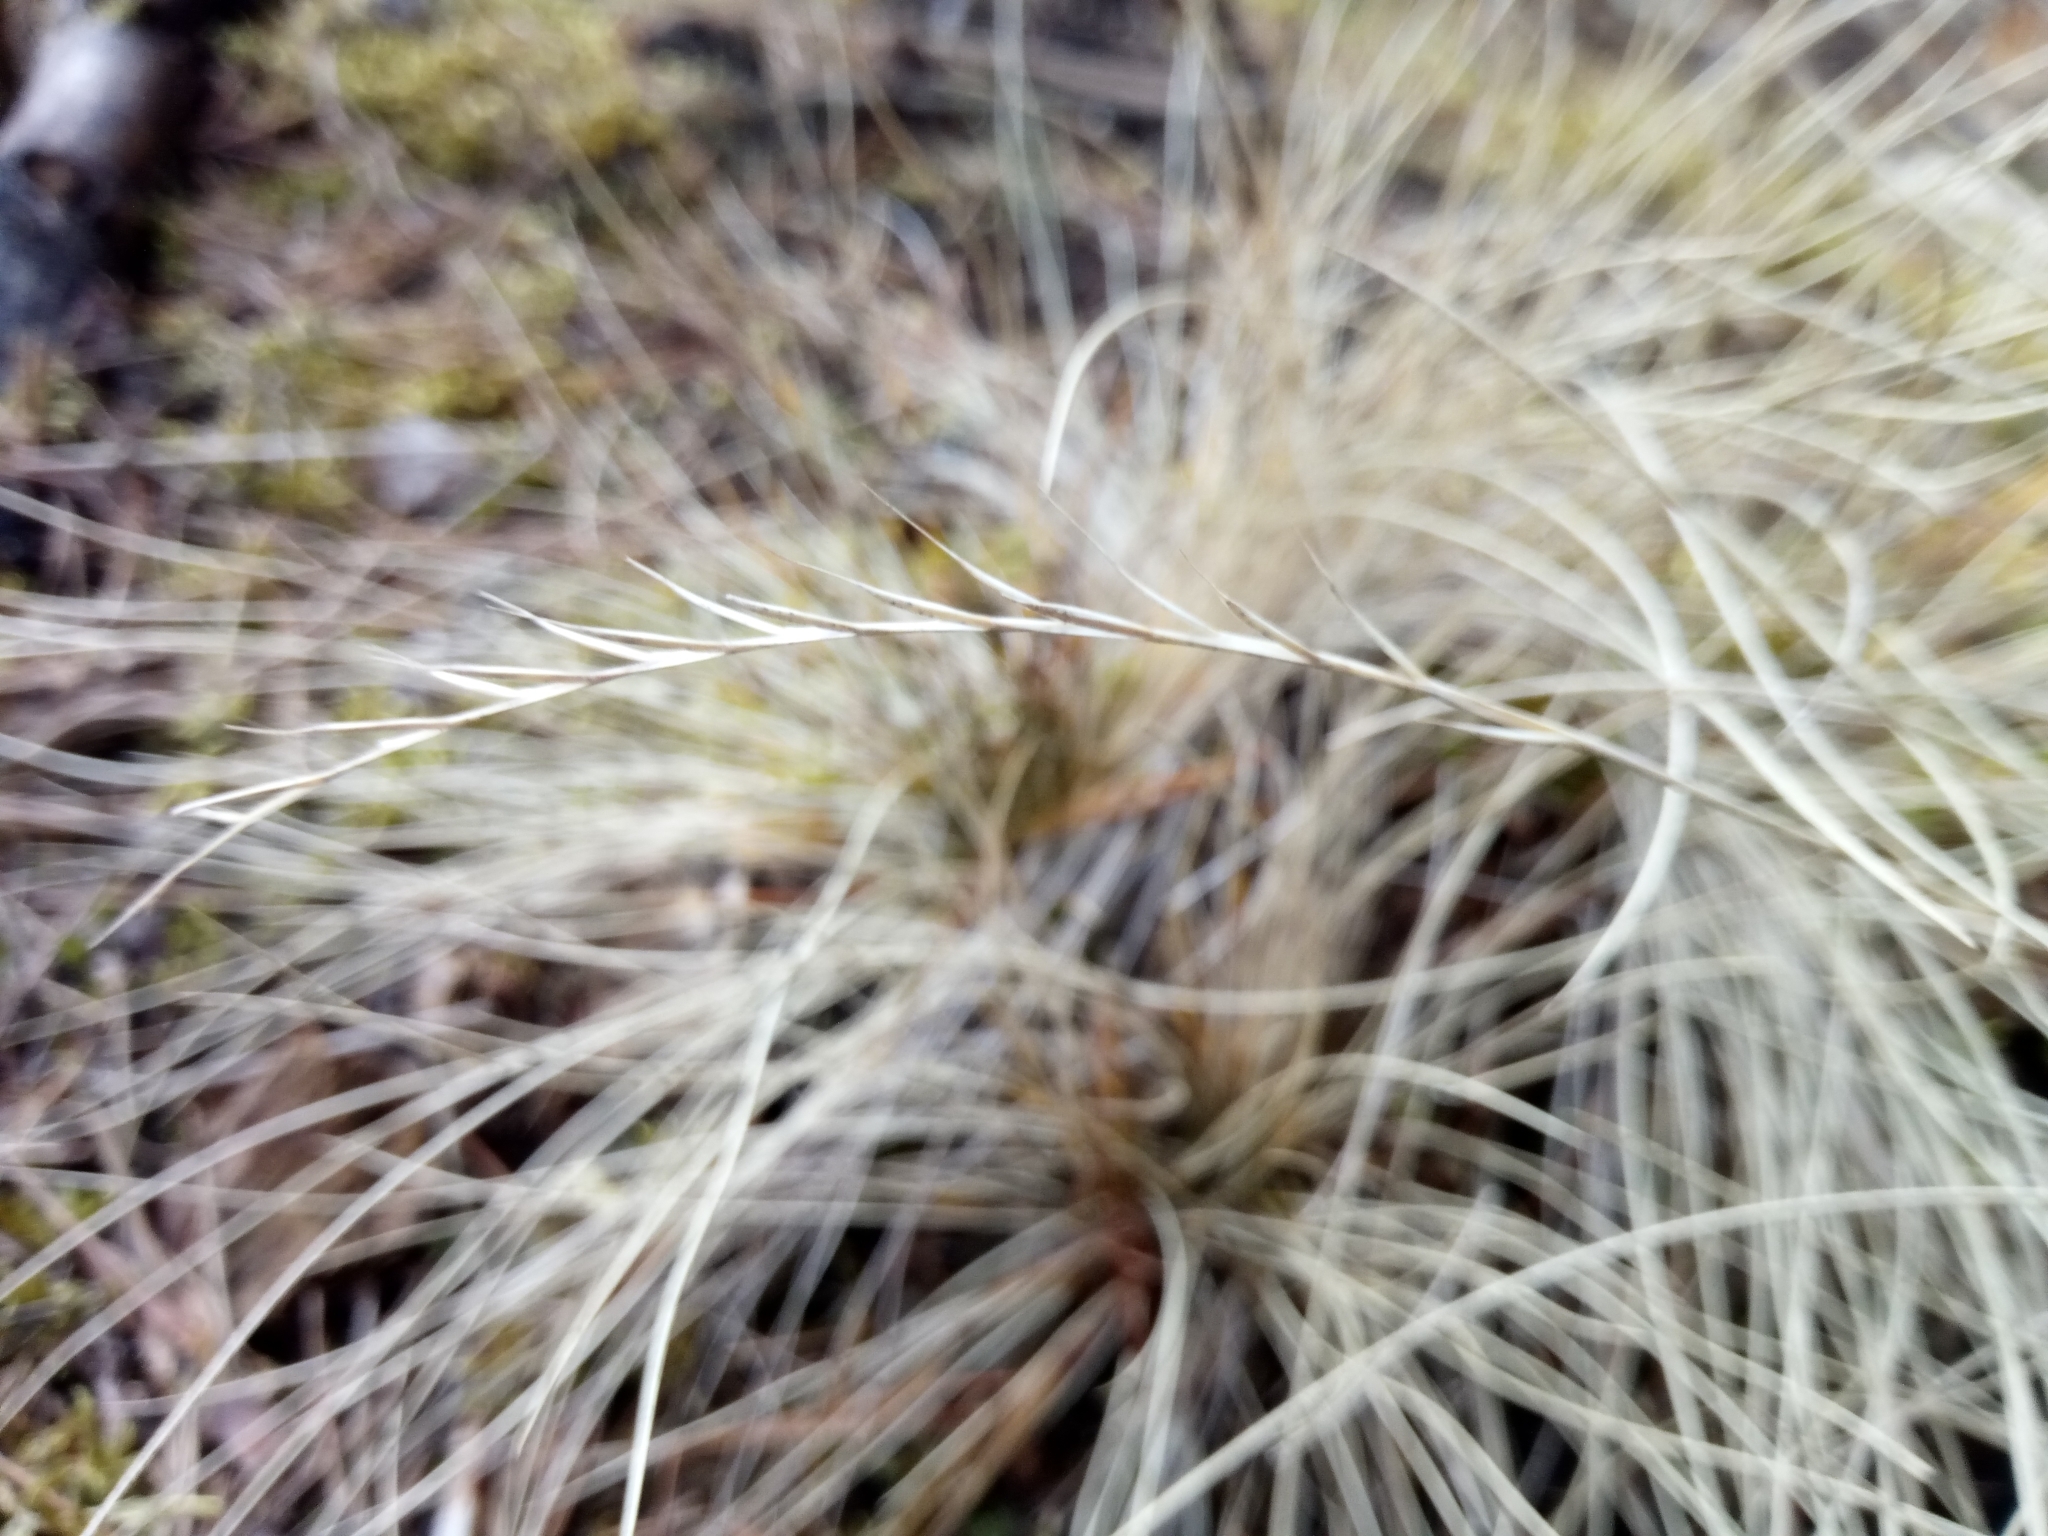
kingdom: Plantae
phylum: Tracheophyta
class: Liliopsida
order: Poales
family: Poaceae
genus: Nardus
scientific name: Nardus stricta
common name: Mat-grass
